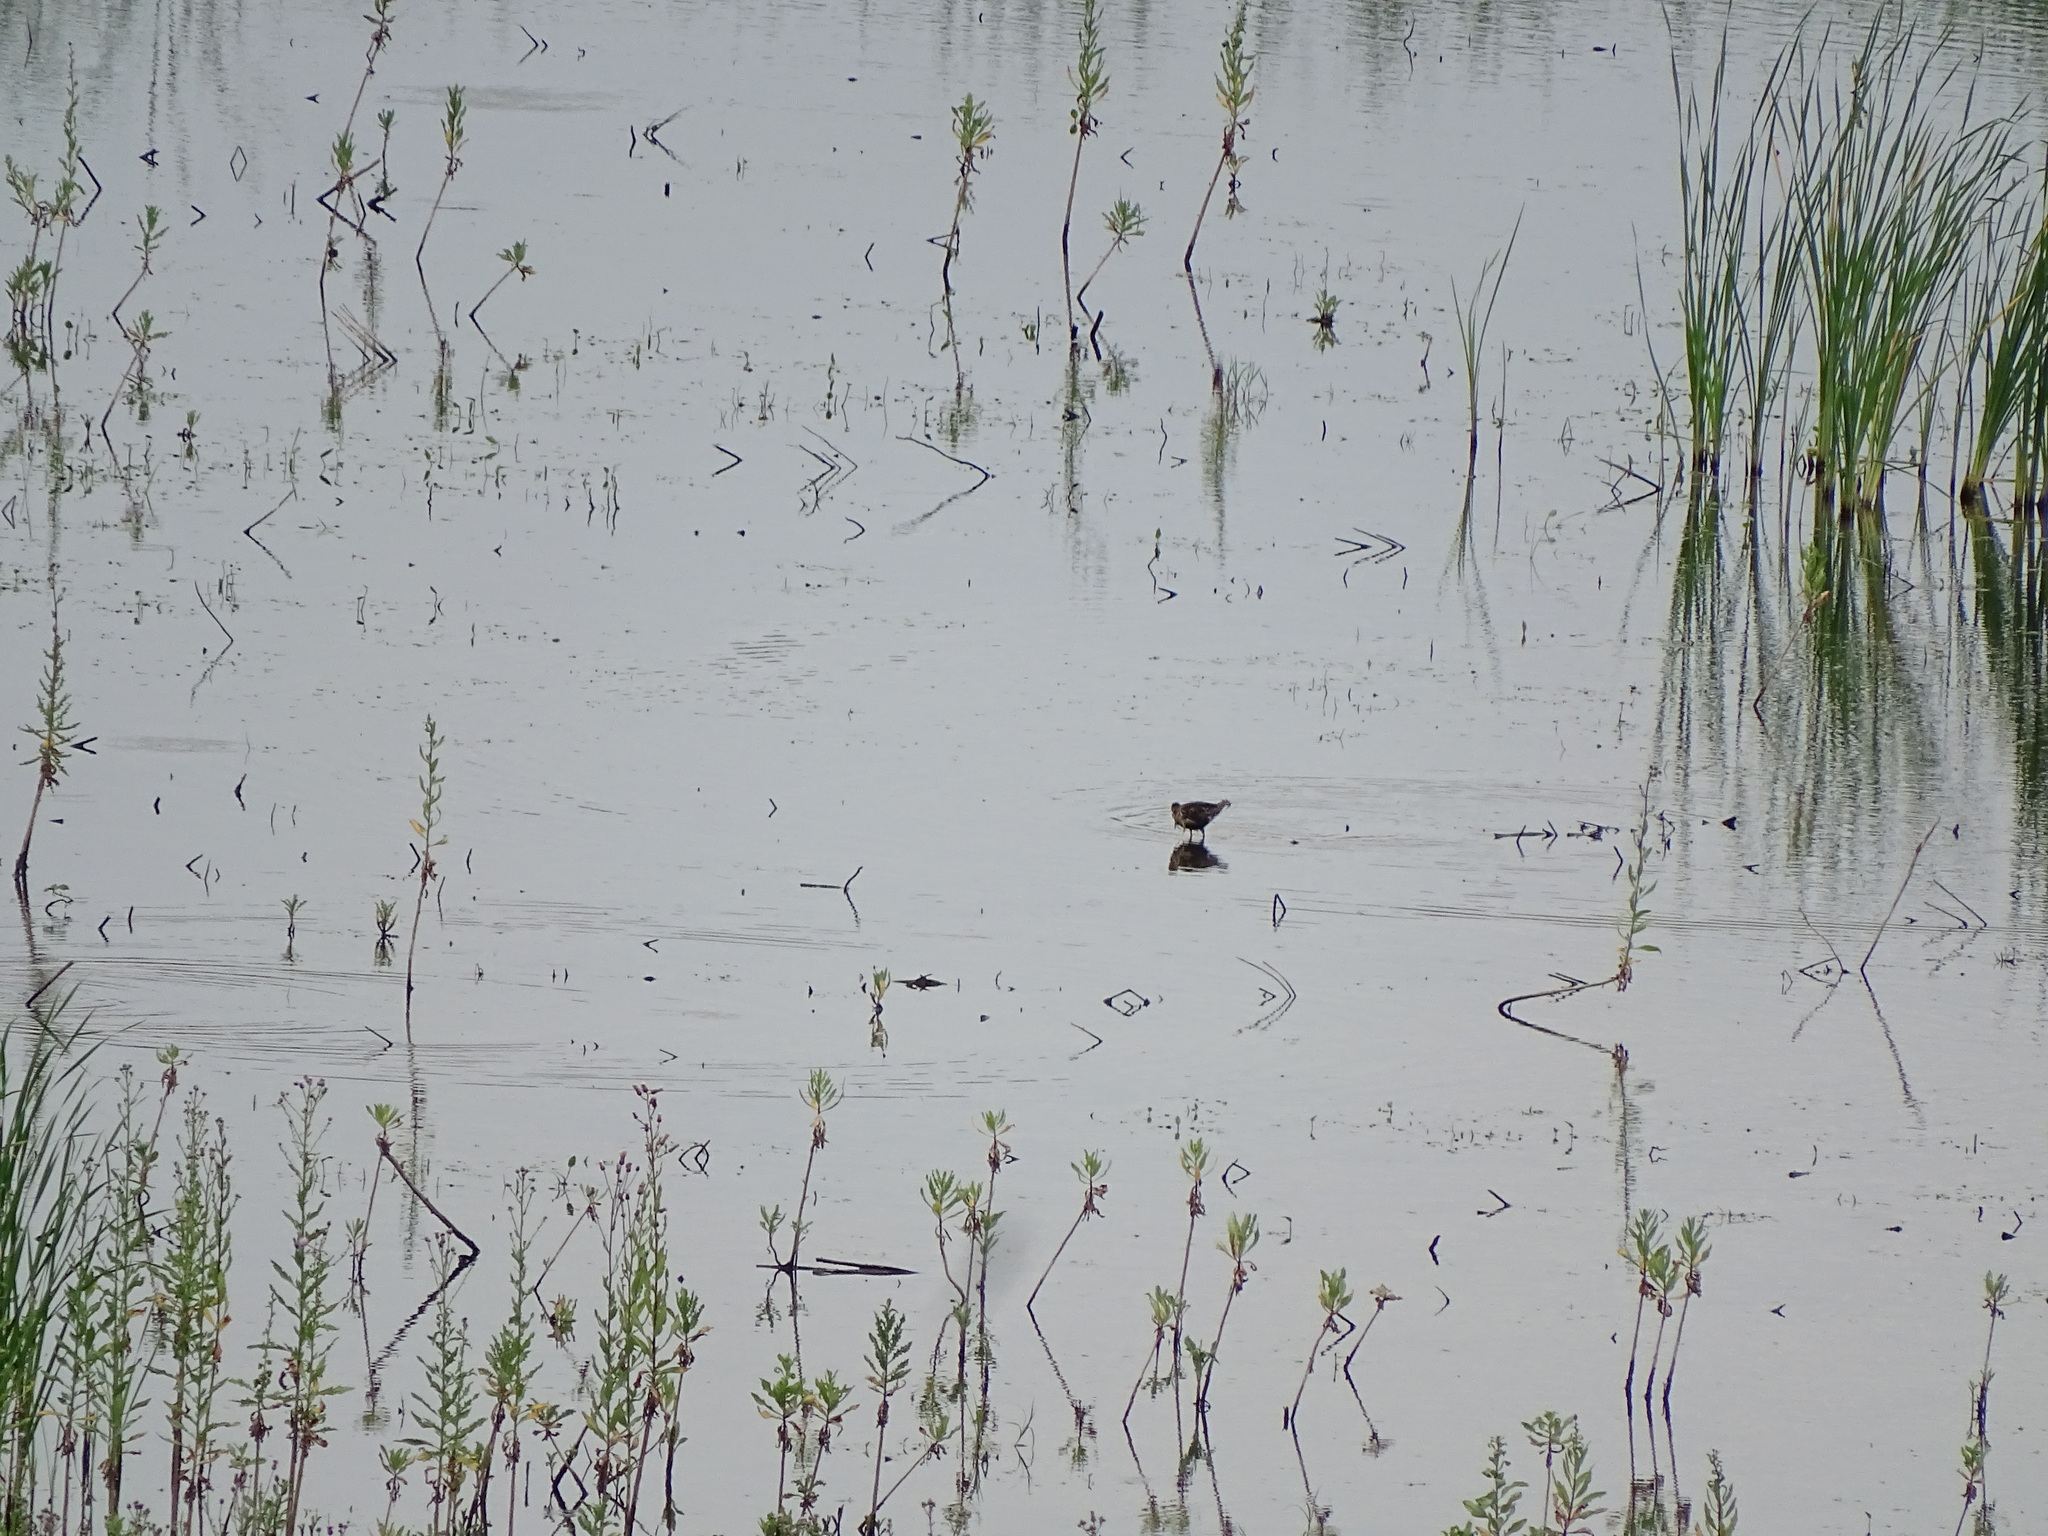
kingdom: Animalia
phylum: Chordata
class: Aves
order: Charadriiformes
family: Scolopacidae
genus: Calidris
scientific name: Calidris pugnax
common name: Ruff
